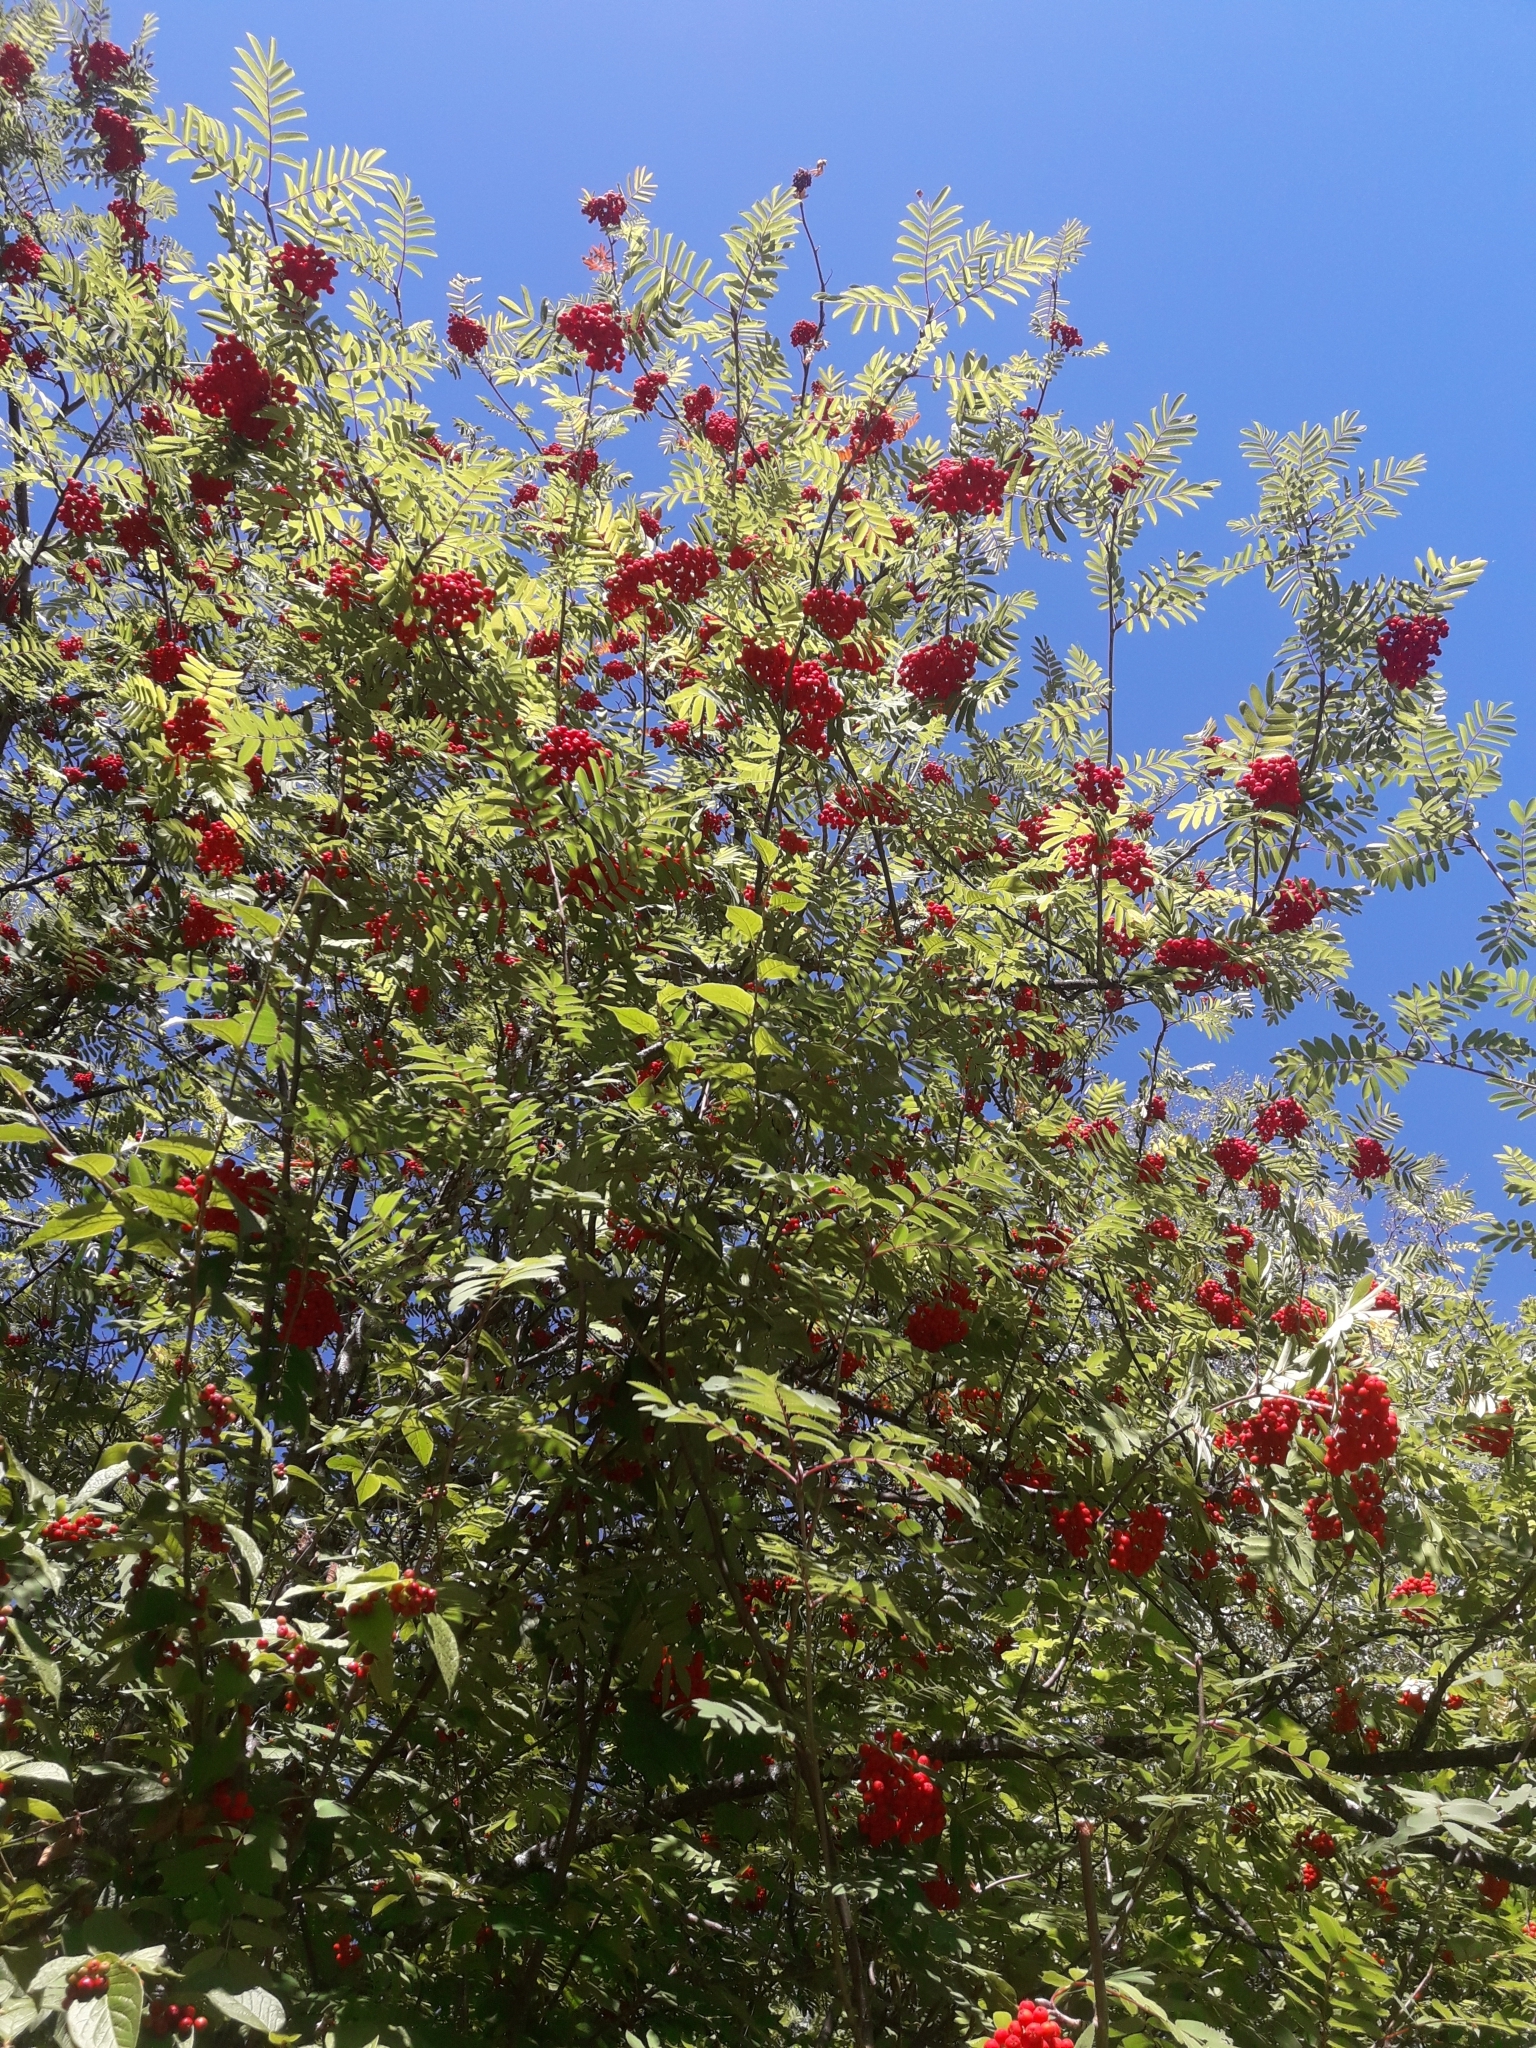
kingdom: Plantae
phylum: Tracheophyta
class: Magnoliopsida
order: Rosales
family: Rosaceae
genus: Sorbus
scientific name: Sorbus aucuparia
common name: Rowan
